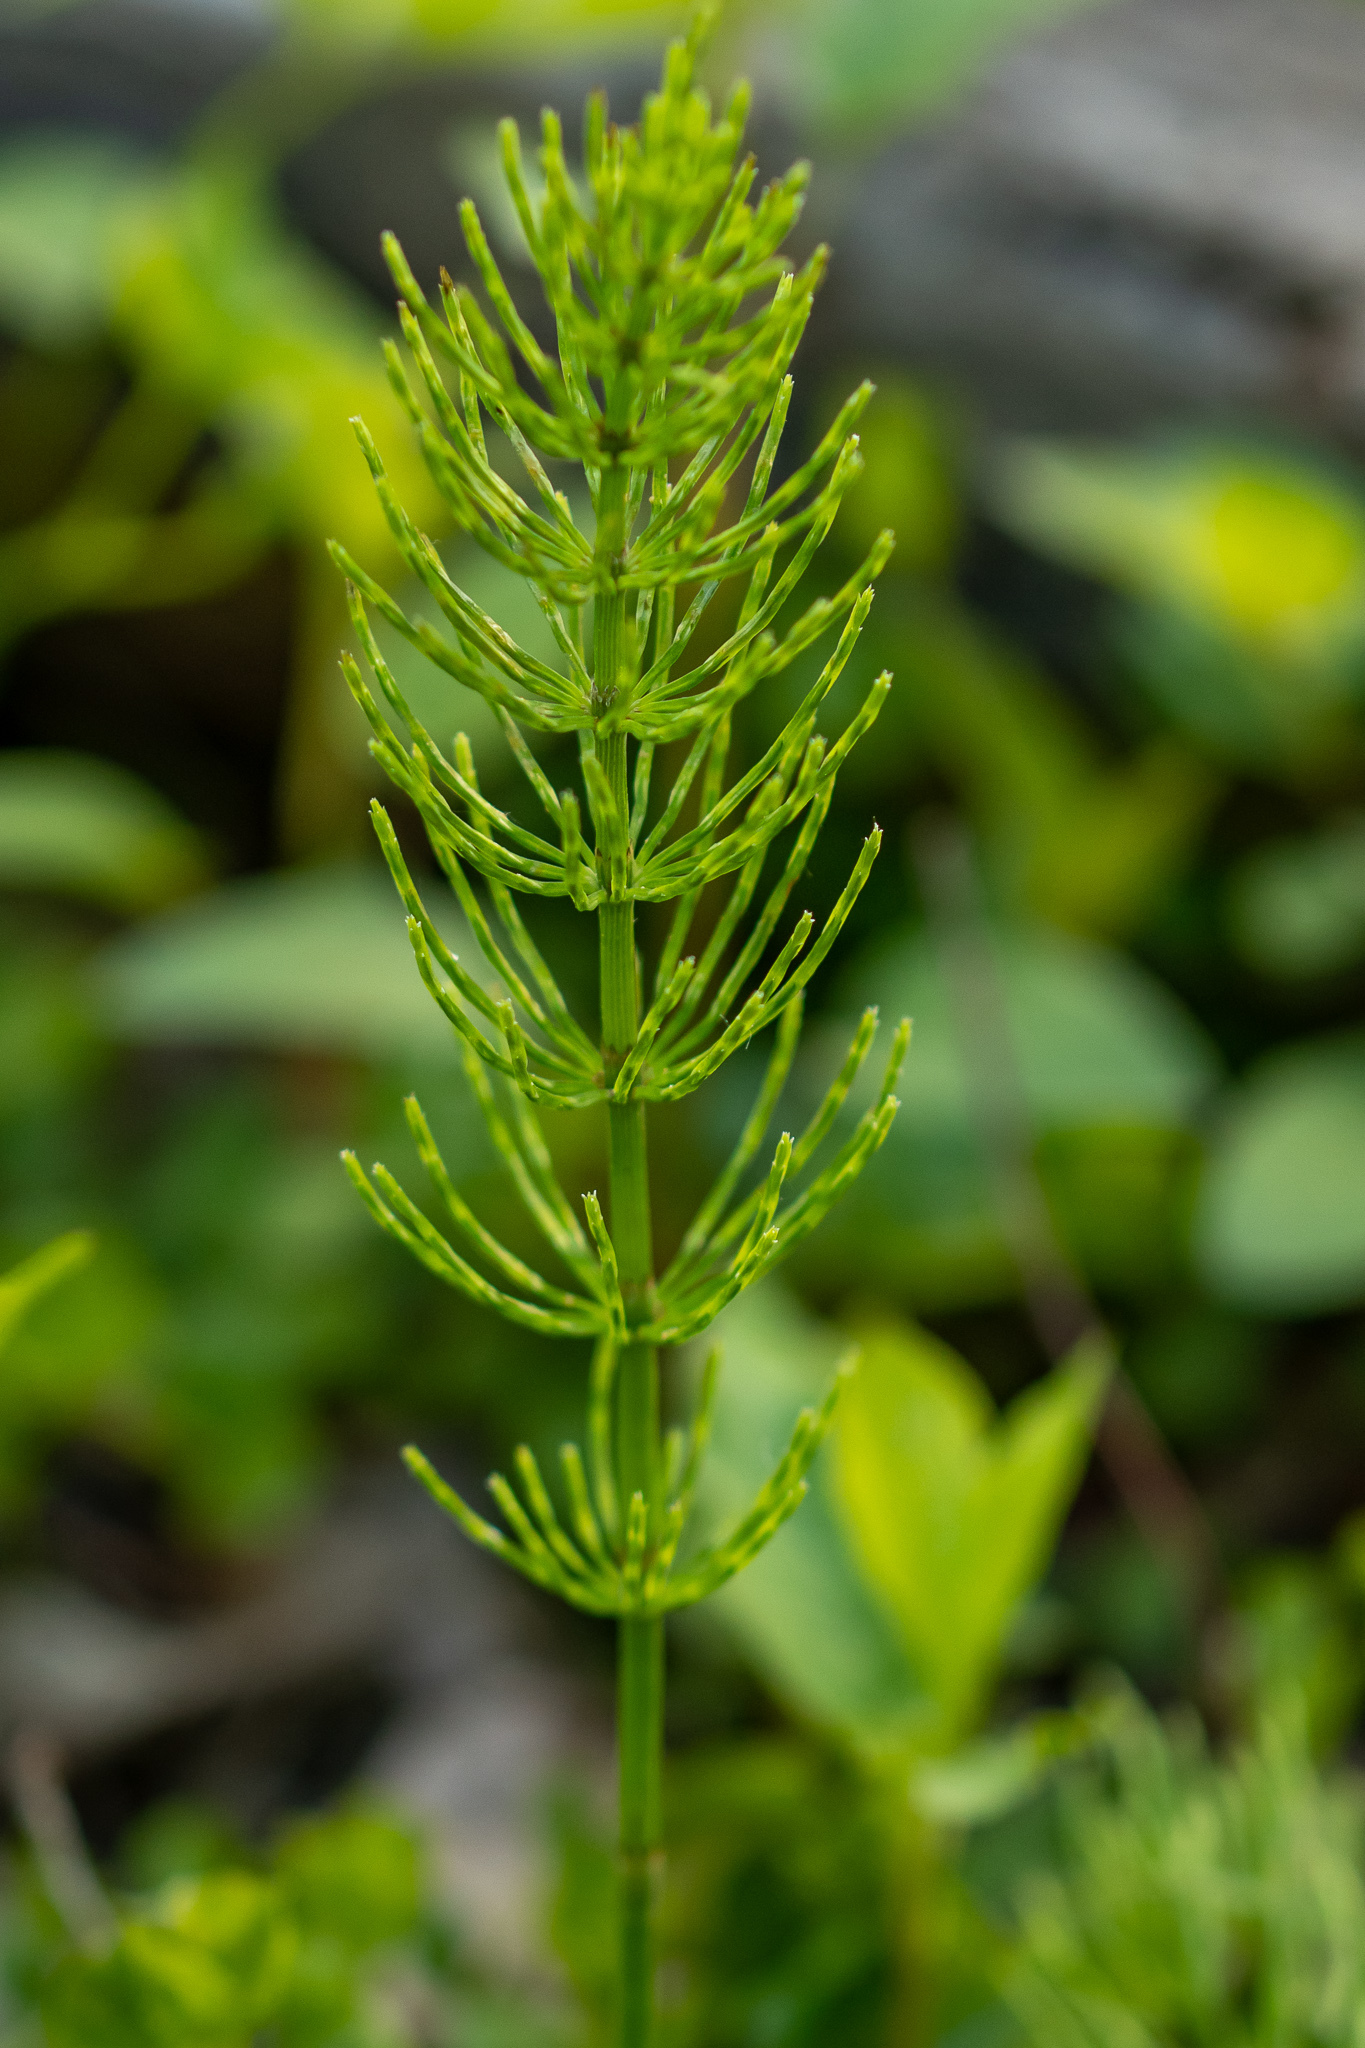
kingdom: Plantae
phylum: Tracheophyta
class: Polypodiopsida
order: Equisetales
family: Equisetaceae
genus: Equisetum
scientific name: Equisetum arvense
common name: Field horsetail
